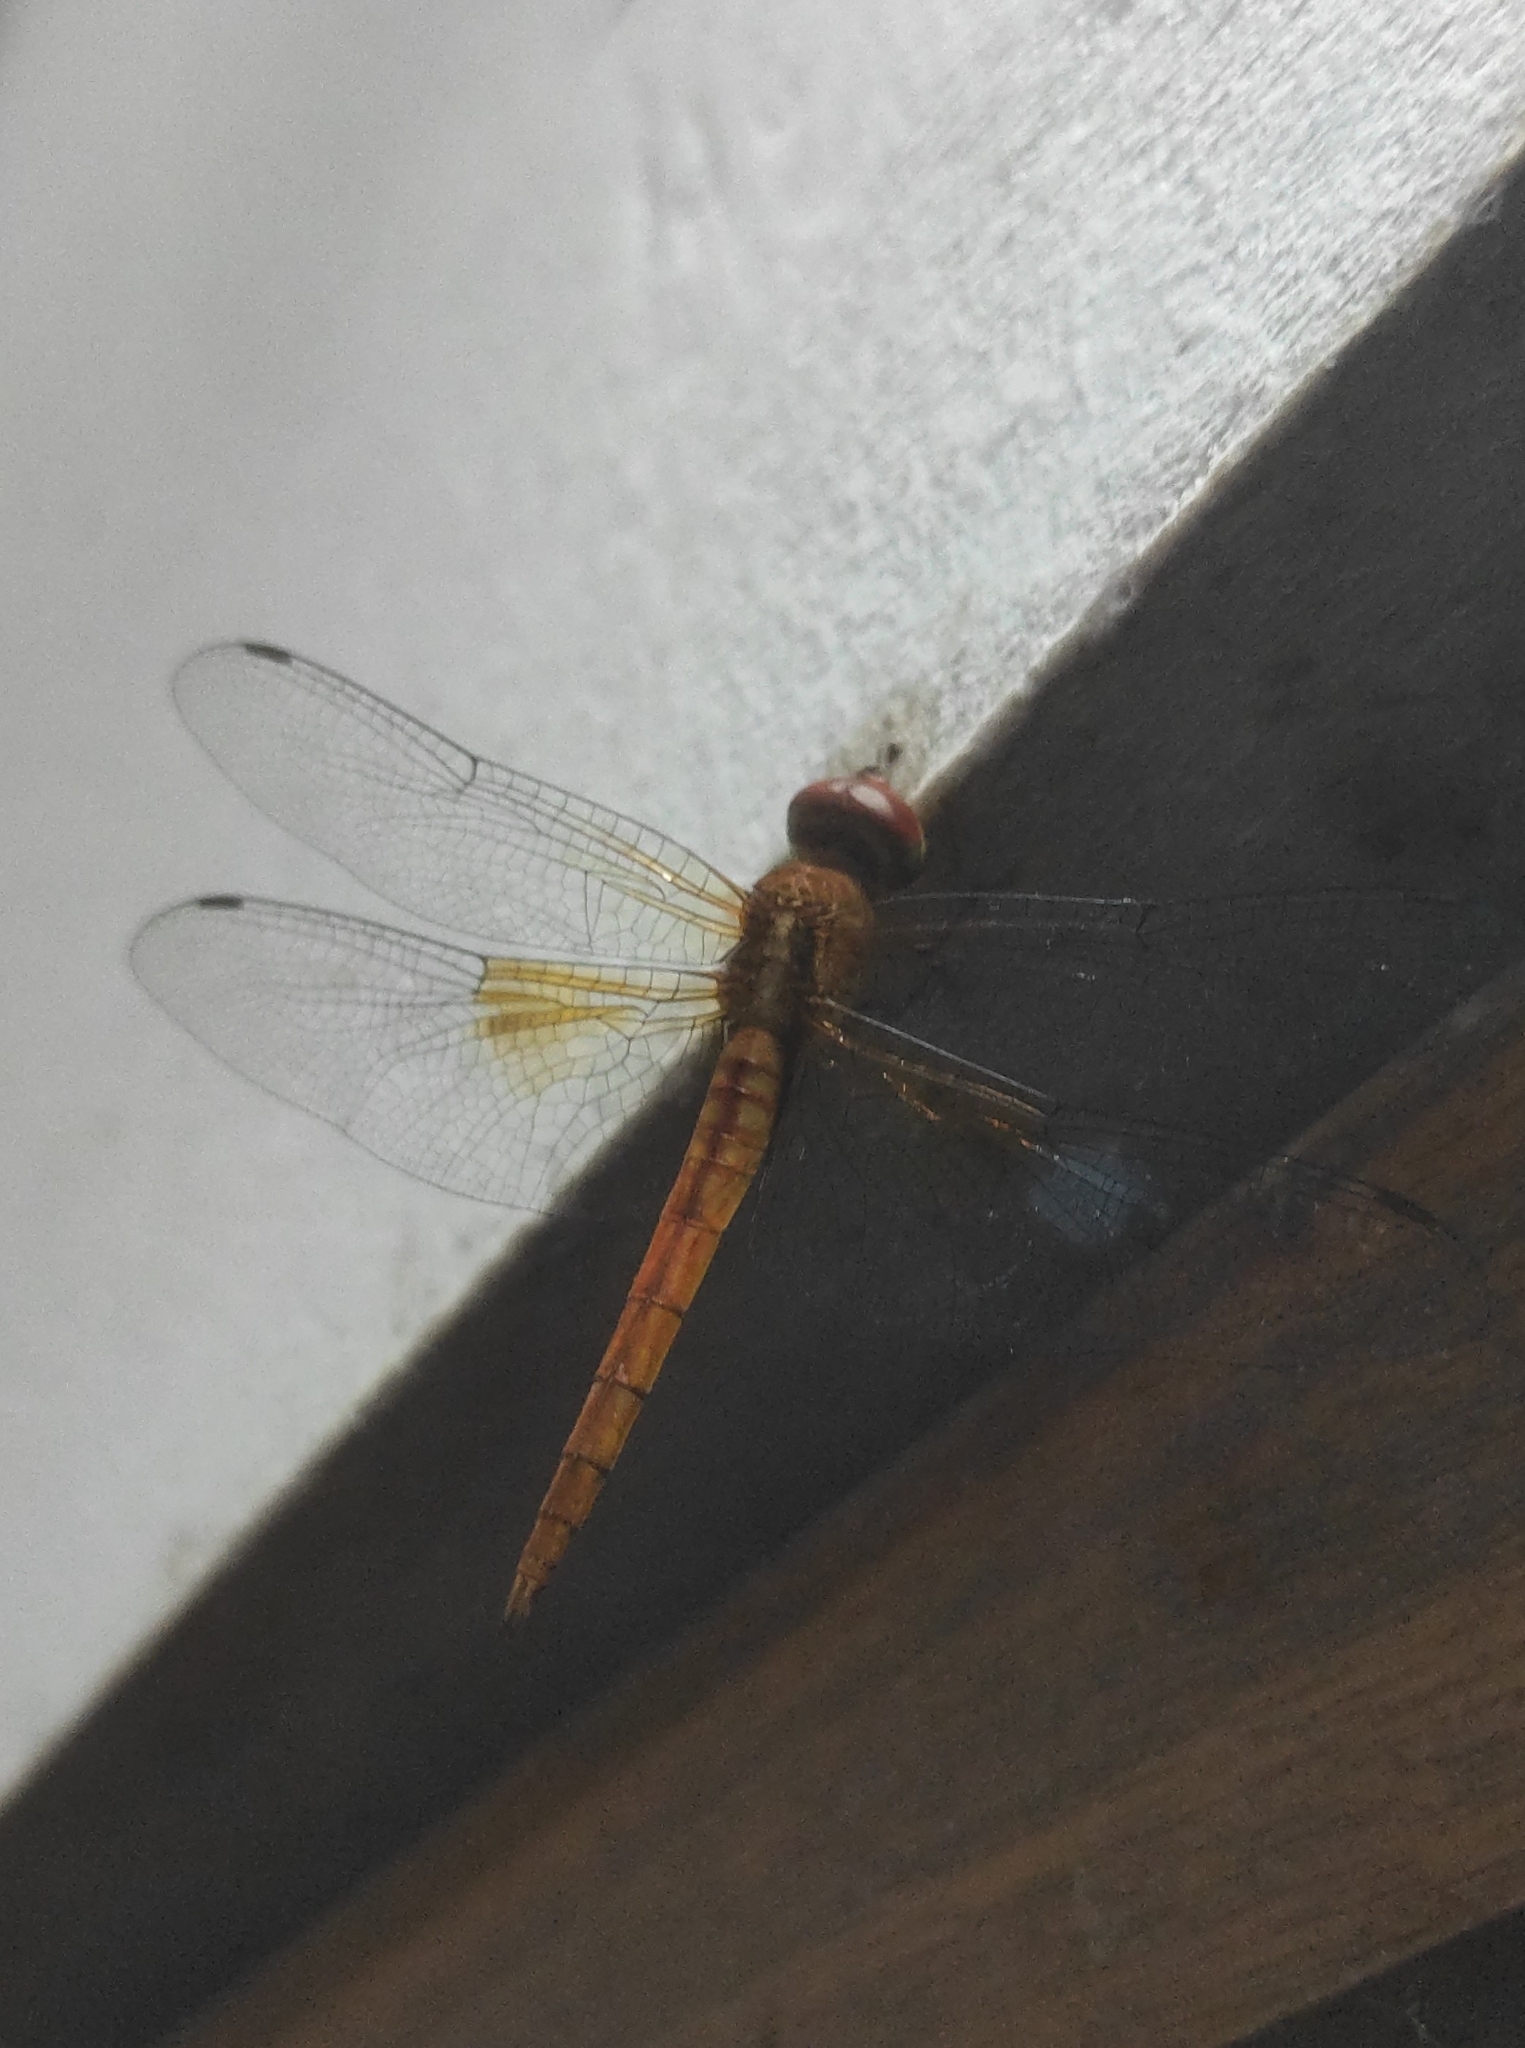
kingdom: Animalia
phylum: Arthropoda
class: Insecta
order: Odonata
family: Libellulidae
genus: Tholymis
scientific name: Tholymis tillarga
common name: Coral-tailed cloud wing
